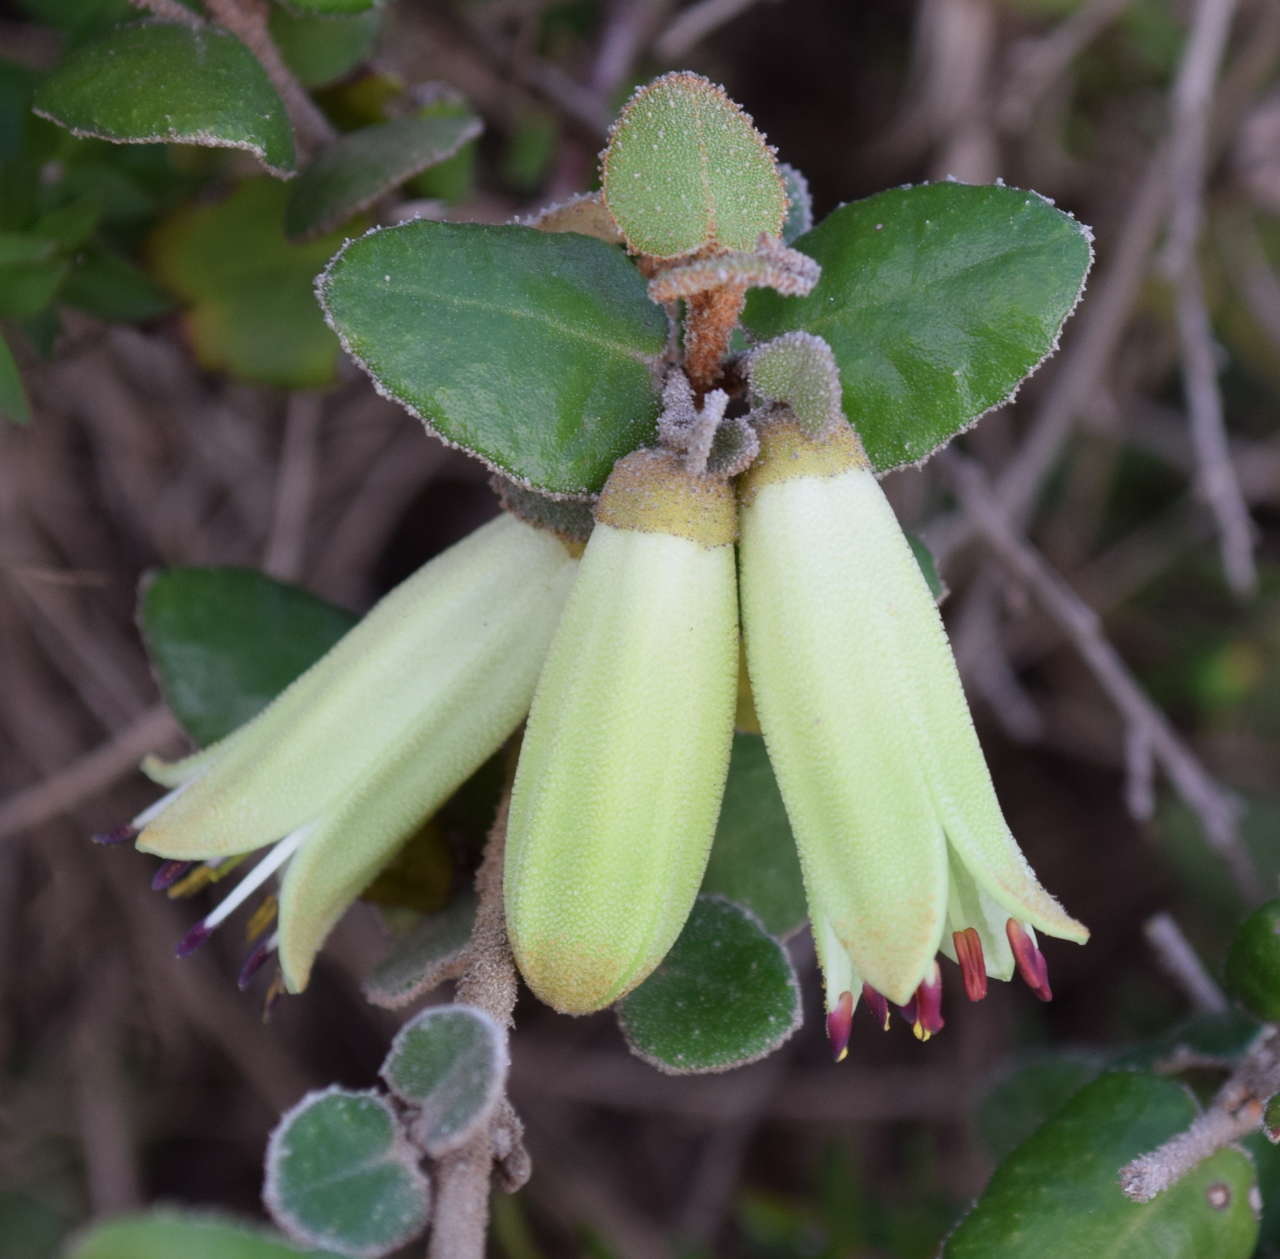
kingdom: Plantae
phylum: Tracheophyta
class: Magnoliopsida
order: Sapindales
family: Rutaceae
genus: Correa
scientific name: Correa reflexa
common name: Common correa
